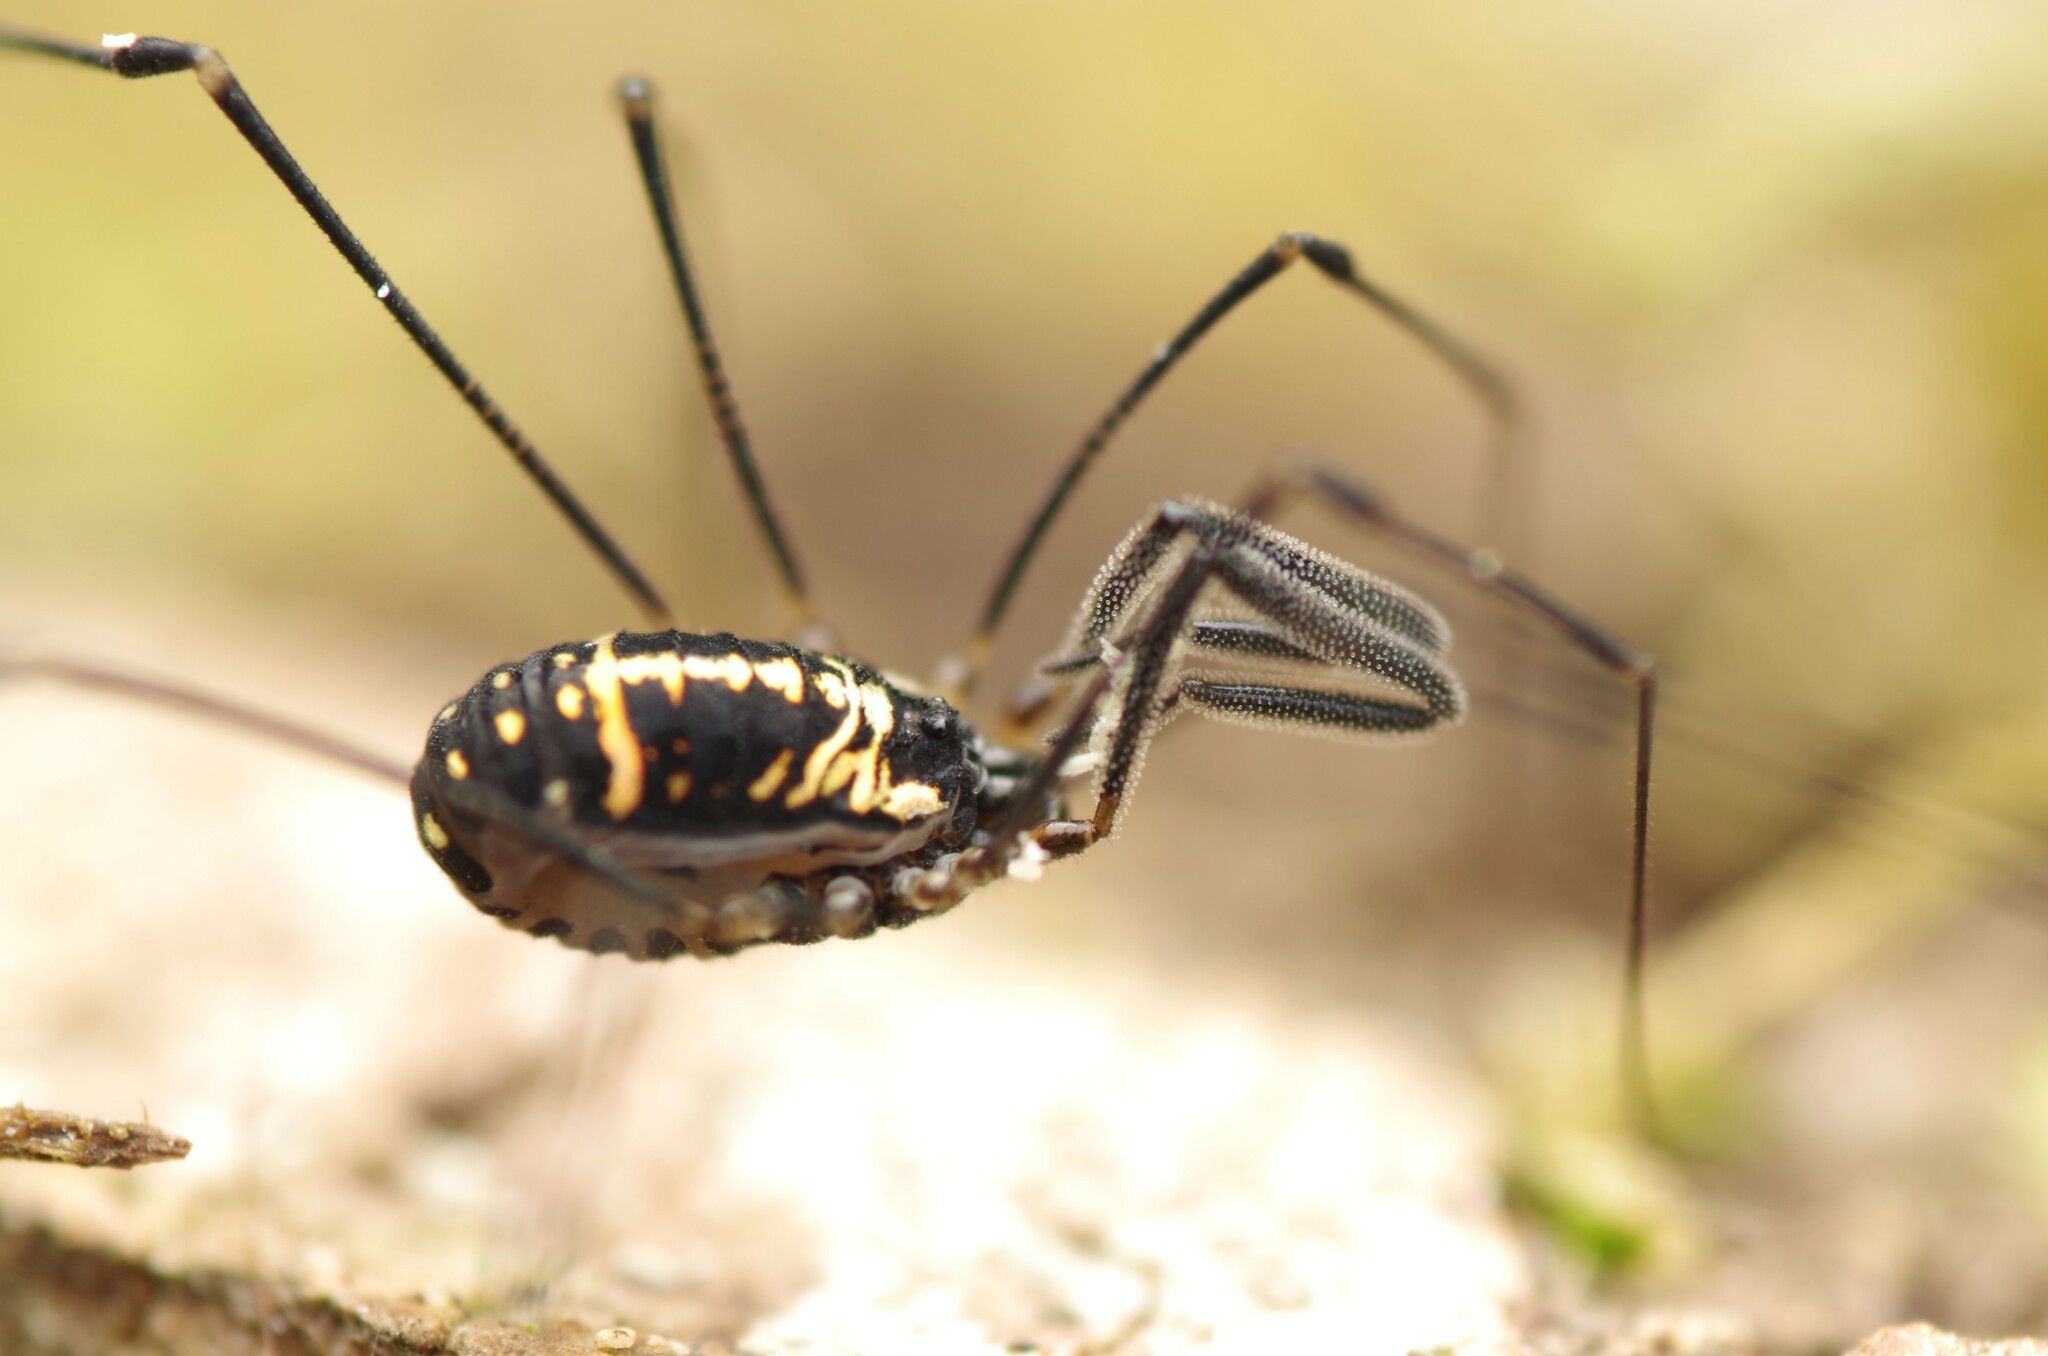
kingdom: Animalia
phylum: Arthropoda
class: Arachnida
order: Opiliones
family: Nemastomatidae
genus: Mitostoma
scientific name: Mitostoma pyrenaeum
